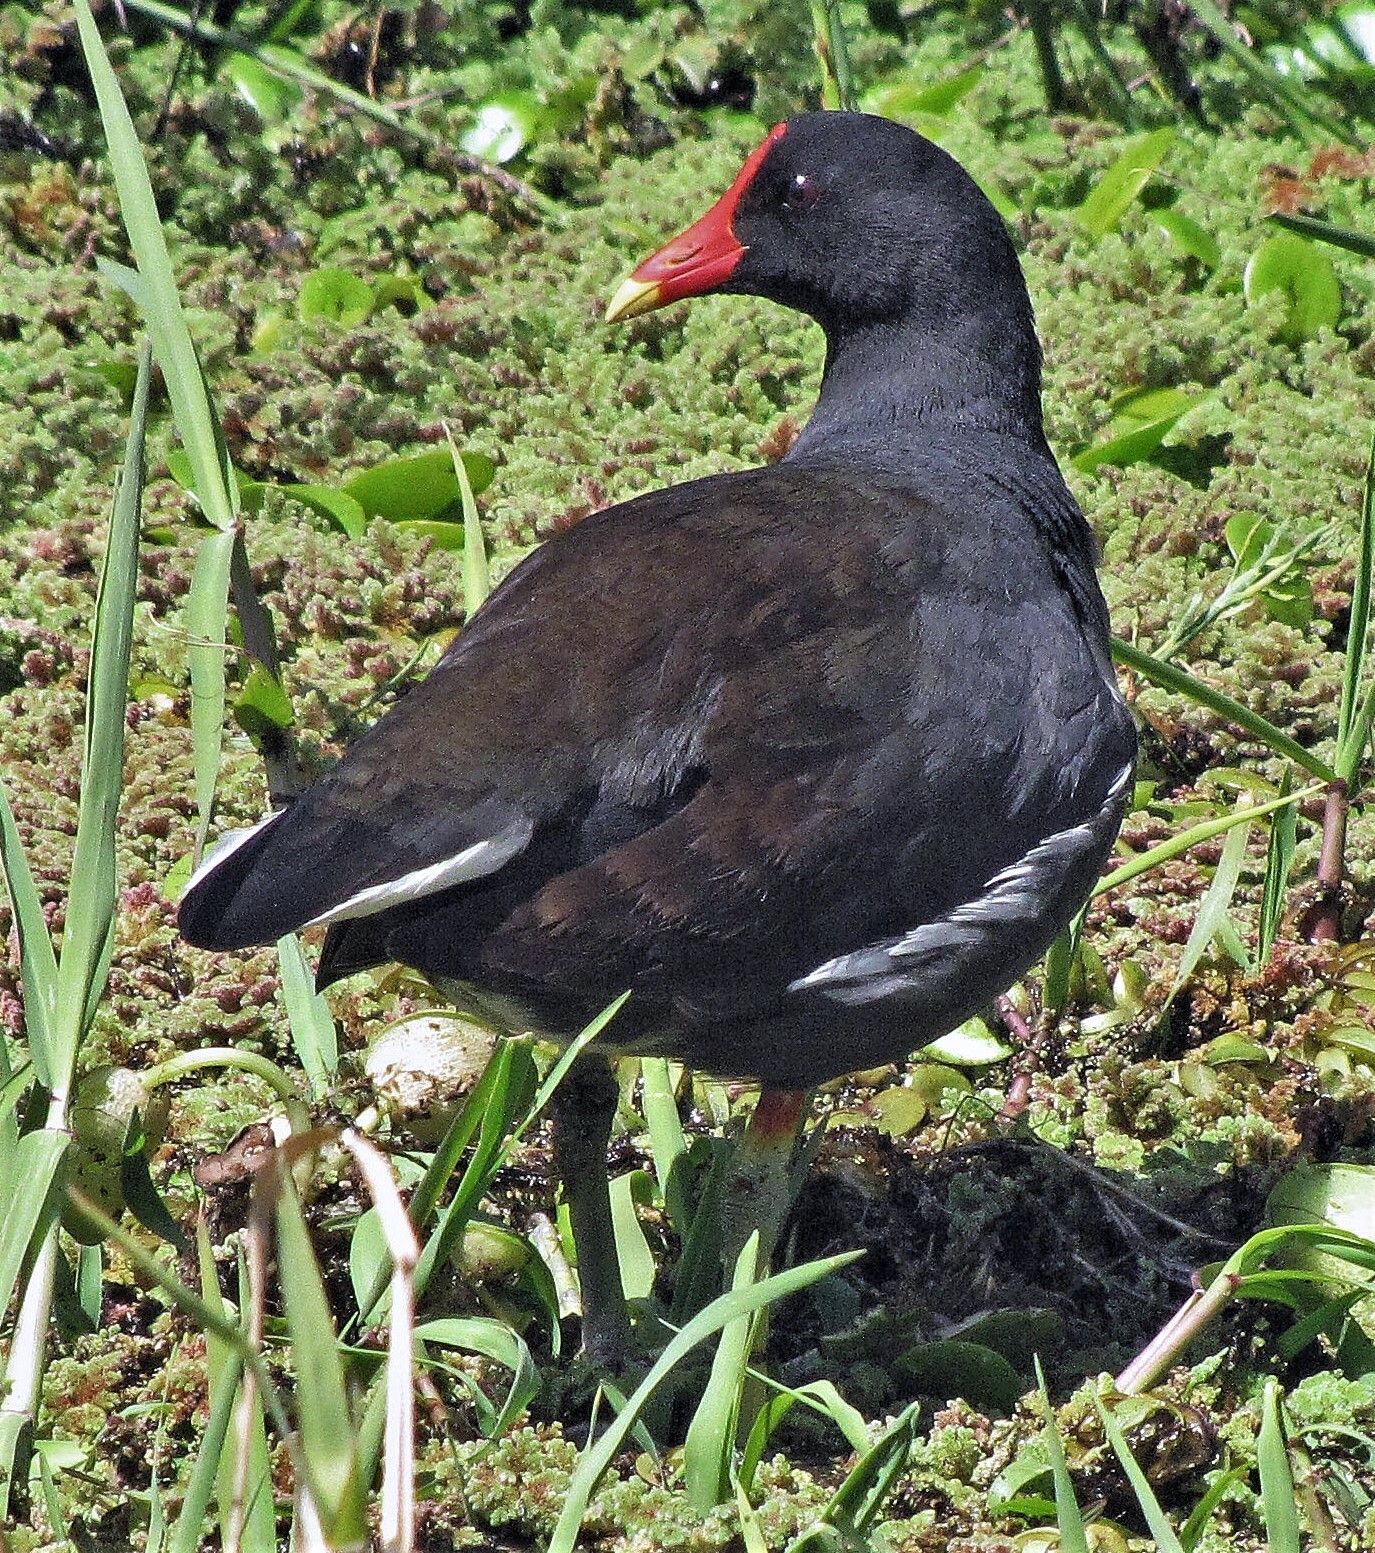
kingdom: Animalia
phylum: Chordata
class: Aves
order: Gruiformes
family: Rallidae
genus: Gallinula
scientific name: Gallinula chloropus
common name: Common moorhen
